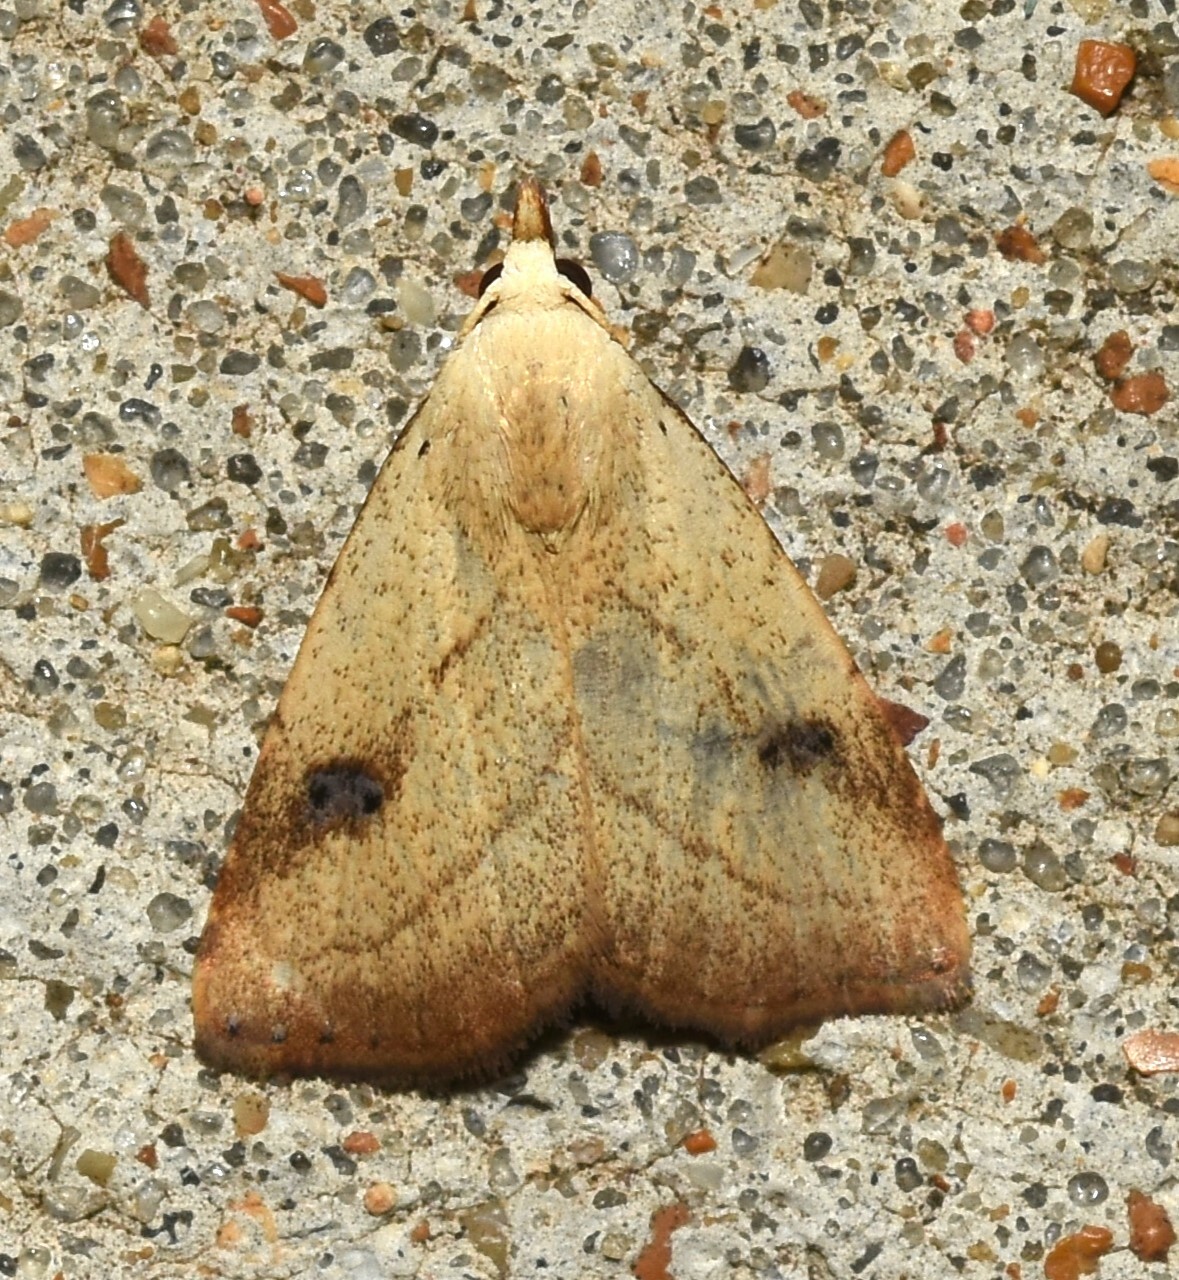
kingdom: Animalia
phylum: Arthropoda
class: Insecta
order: Lepidoptera
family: Erebidae
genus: Rivula
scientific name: Rivula propinqualis
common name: Spotted grass moth
